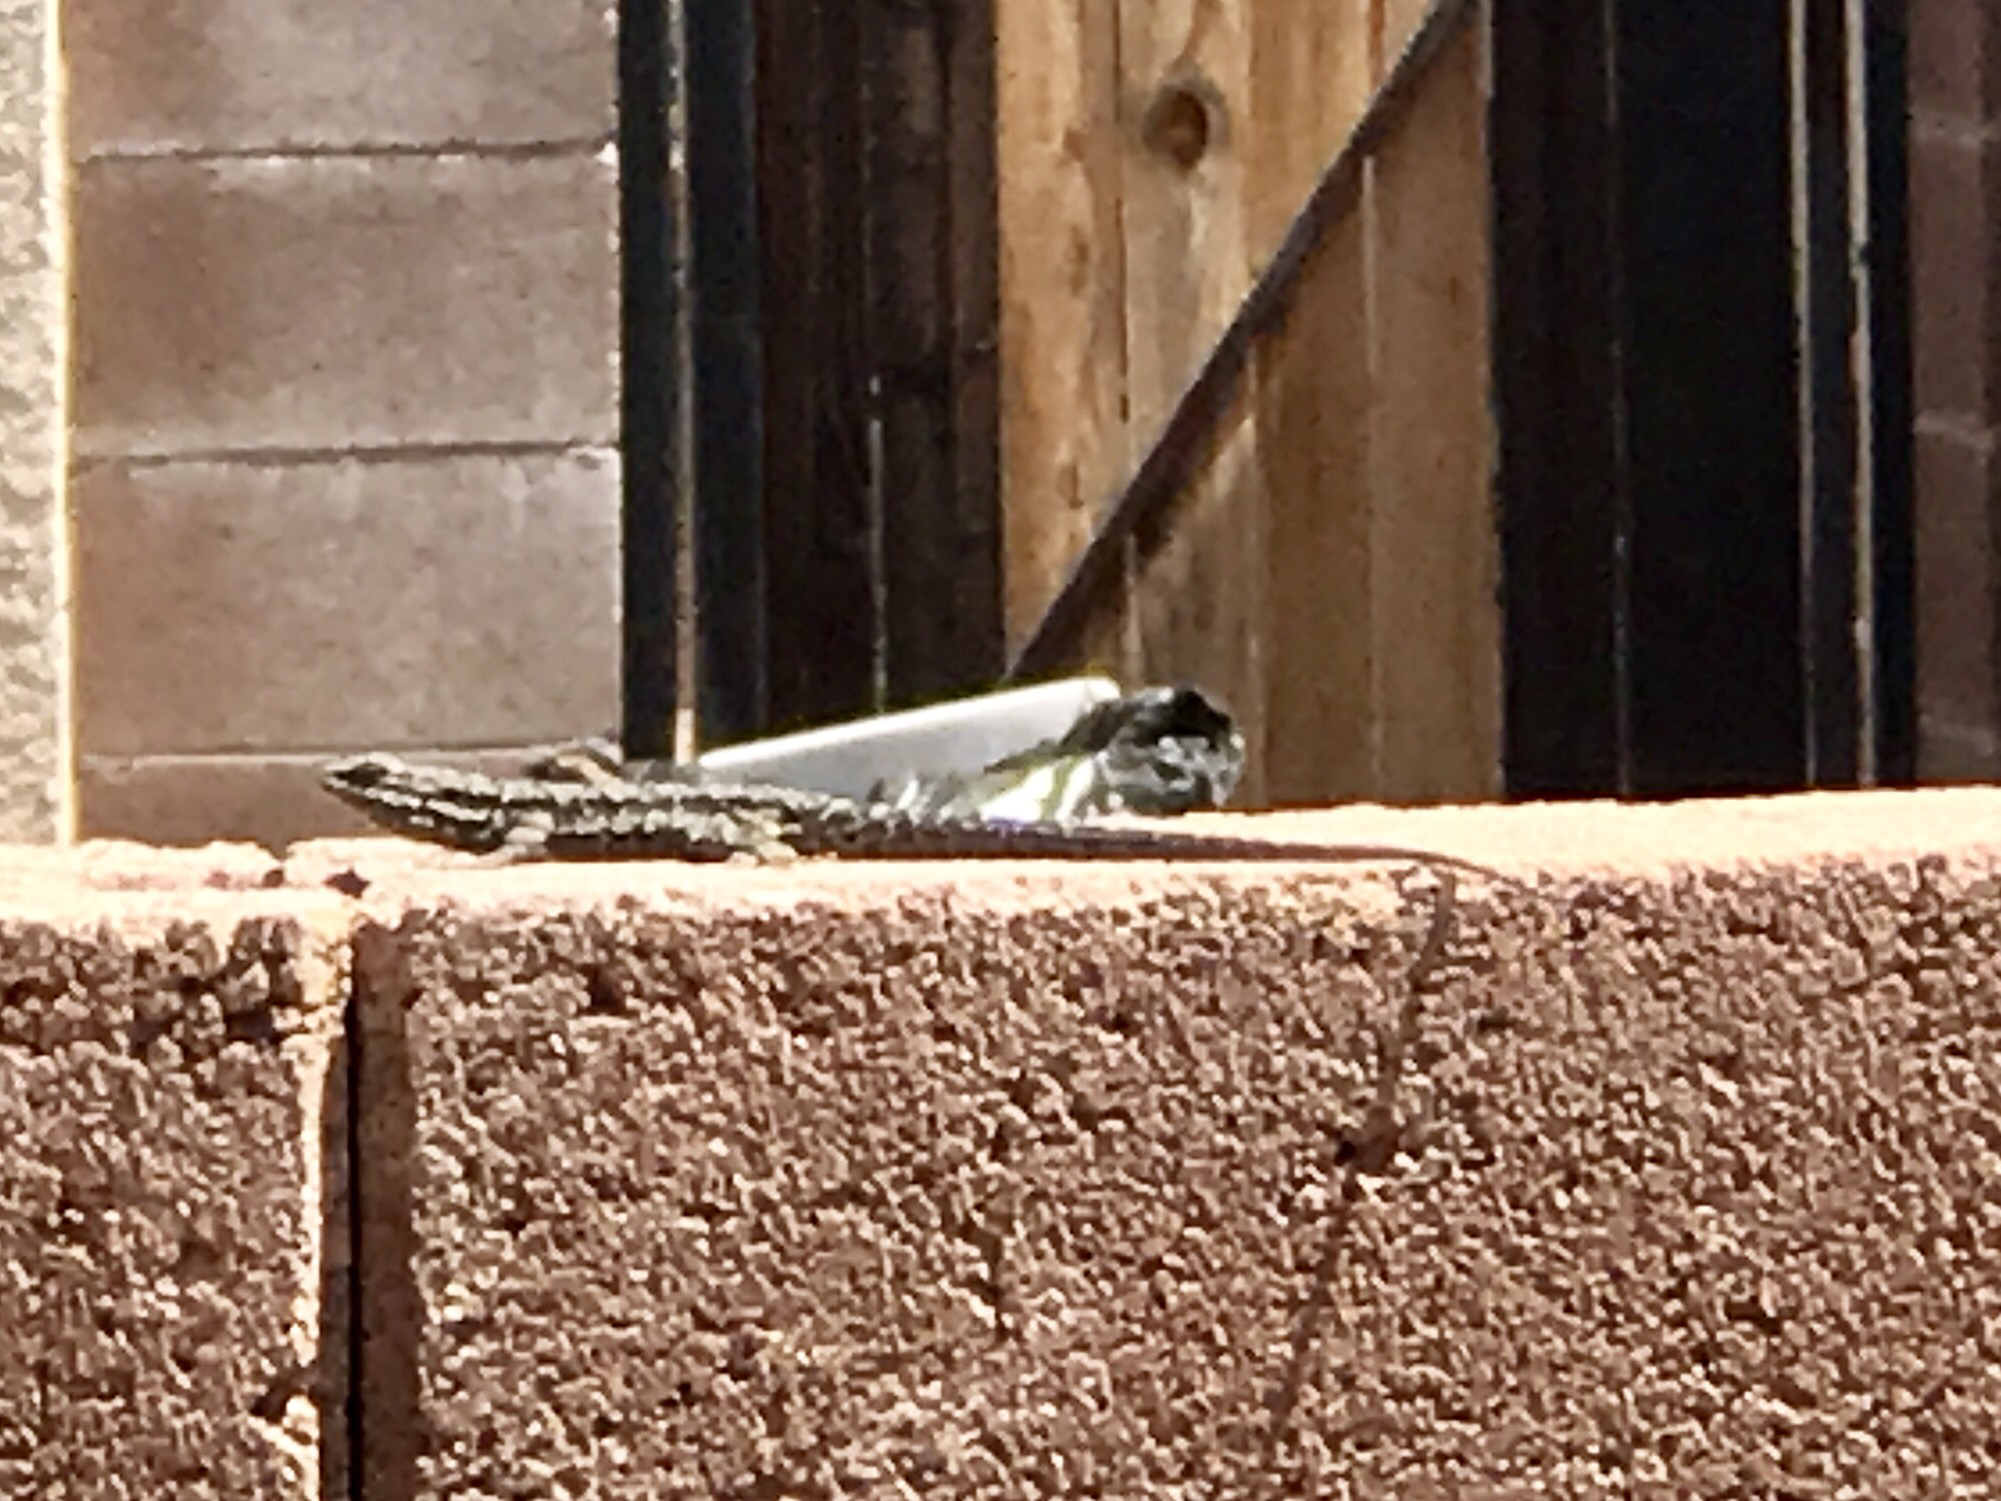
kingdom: Animalia
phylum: Chordata
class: Squamata
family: Phrynosomatidae
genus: Urosaurus
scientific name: Urosaurus ornatus
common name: Ornate tree lizard
